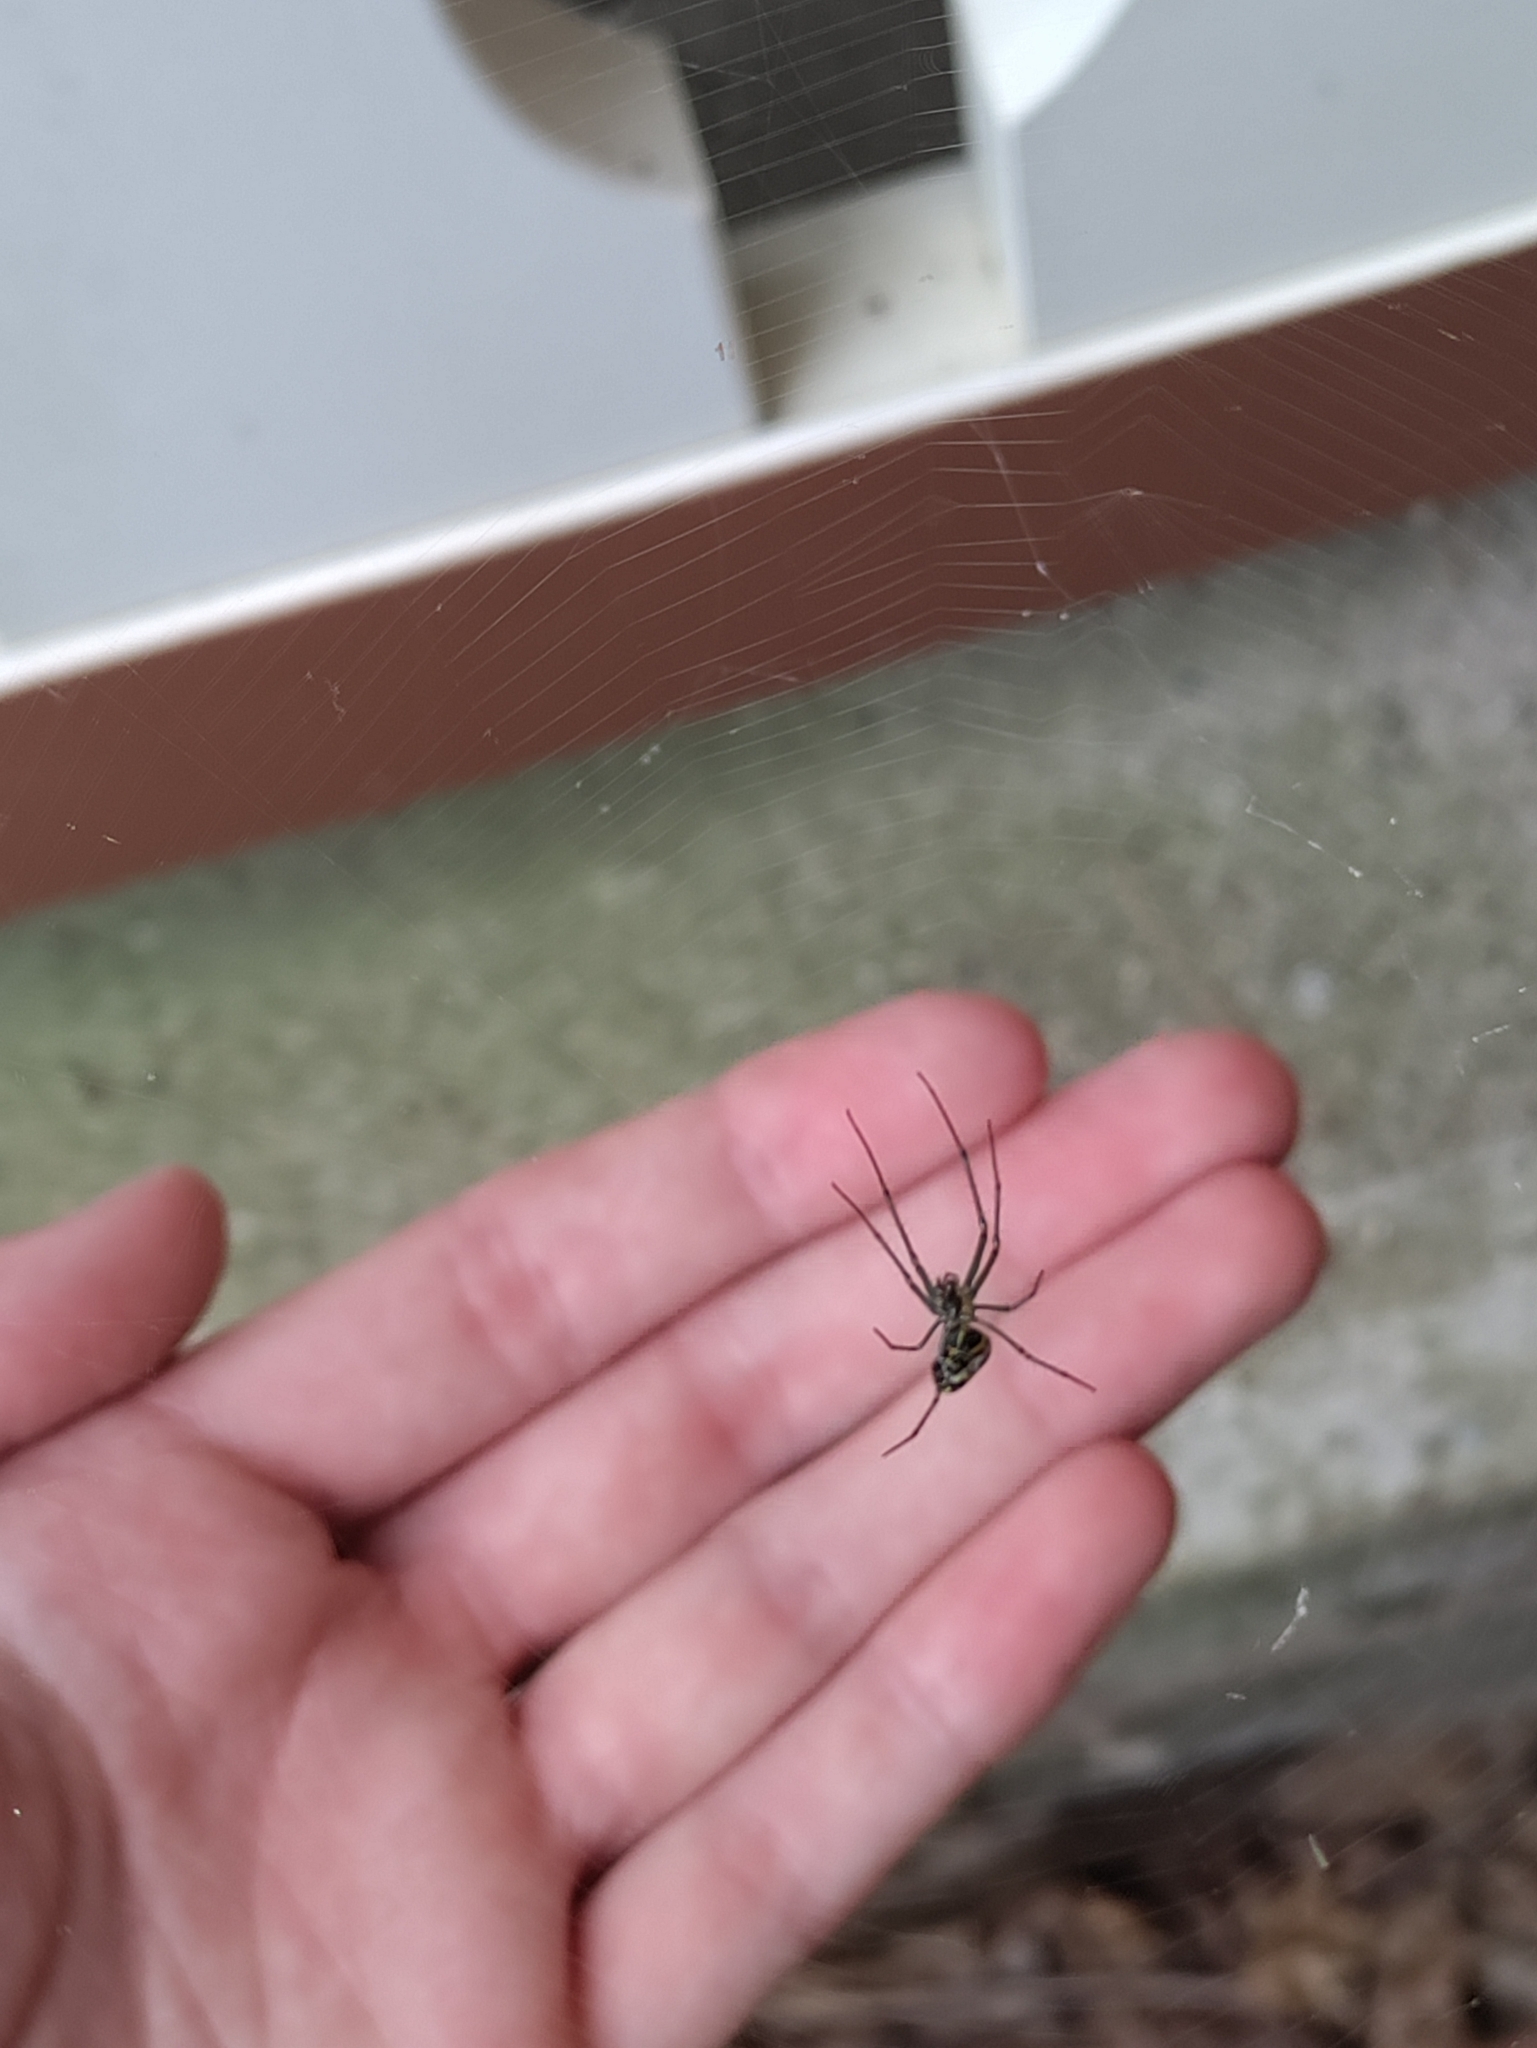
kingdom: Animalia
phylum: Arthropoda
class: Arachnida
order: Araneae
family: Tetragnathidae
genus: Leucauge
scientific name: Leucauge venusta
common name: Longjawed orb weavers
